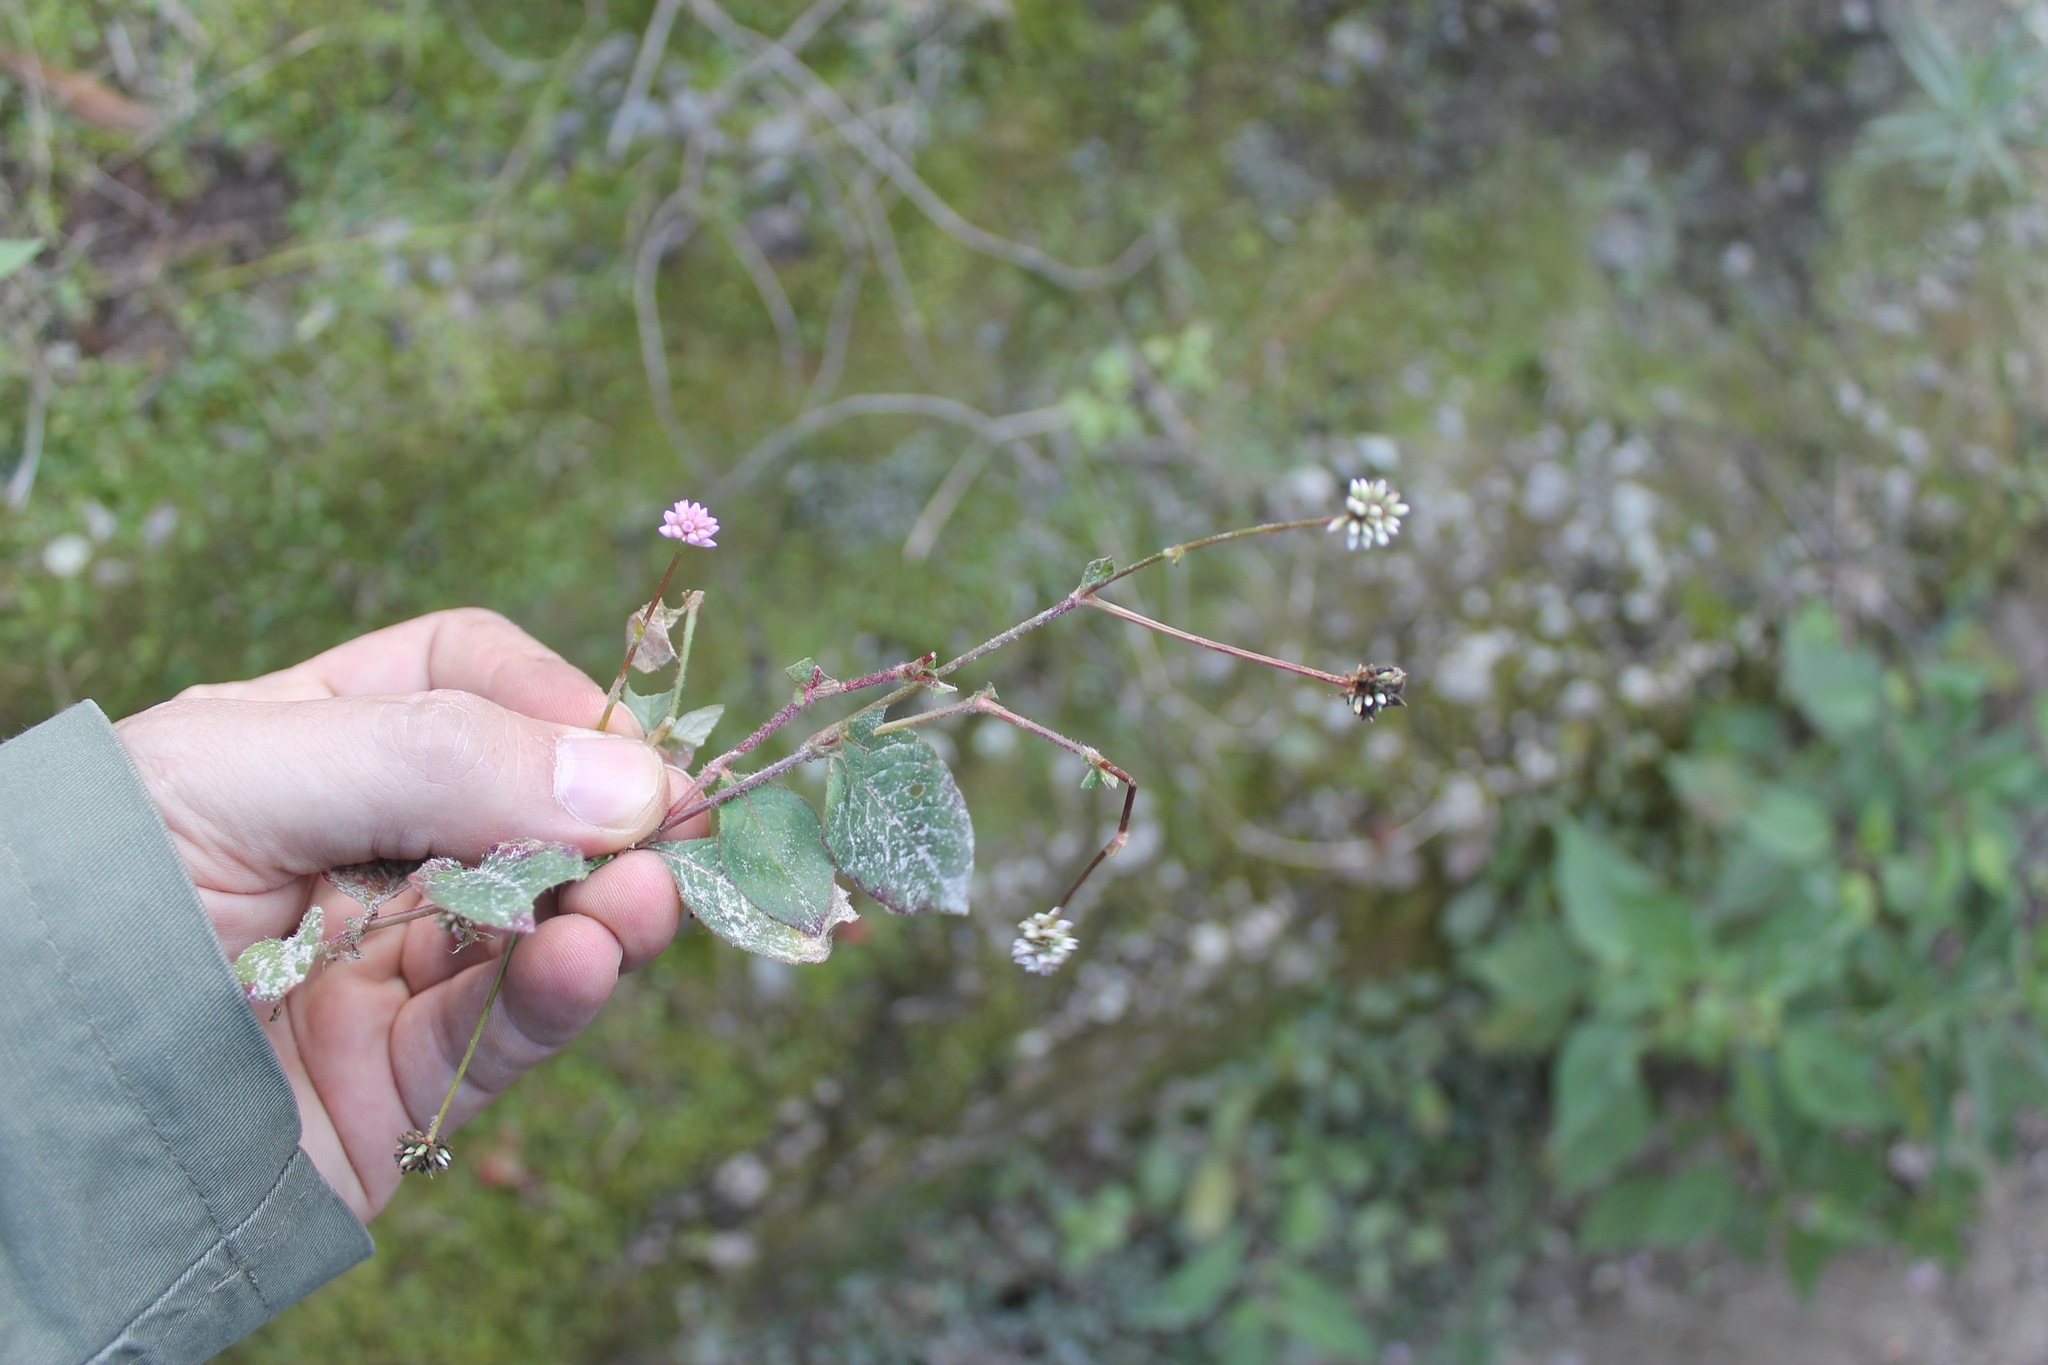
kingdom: Plantae
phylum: Tracheophyta
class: Magnoliopsida
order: Caryophyllales
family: Polygonaceae
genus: Persicaria
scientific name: Persicaria capitata
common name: Pinkhead smartweed
